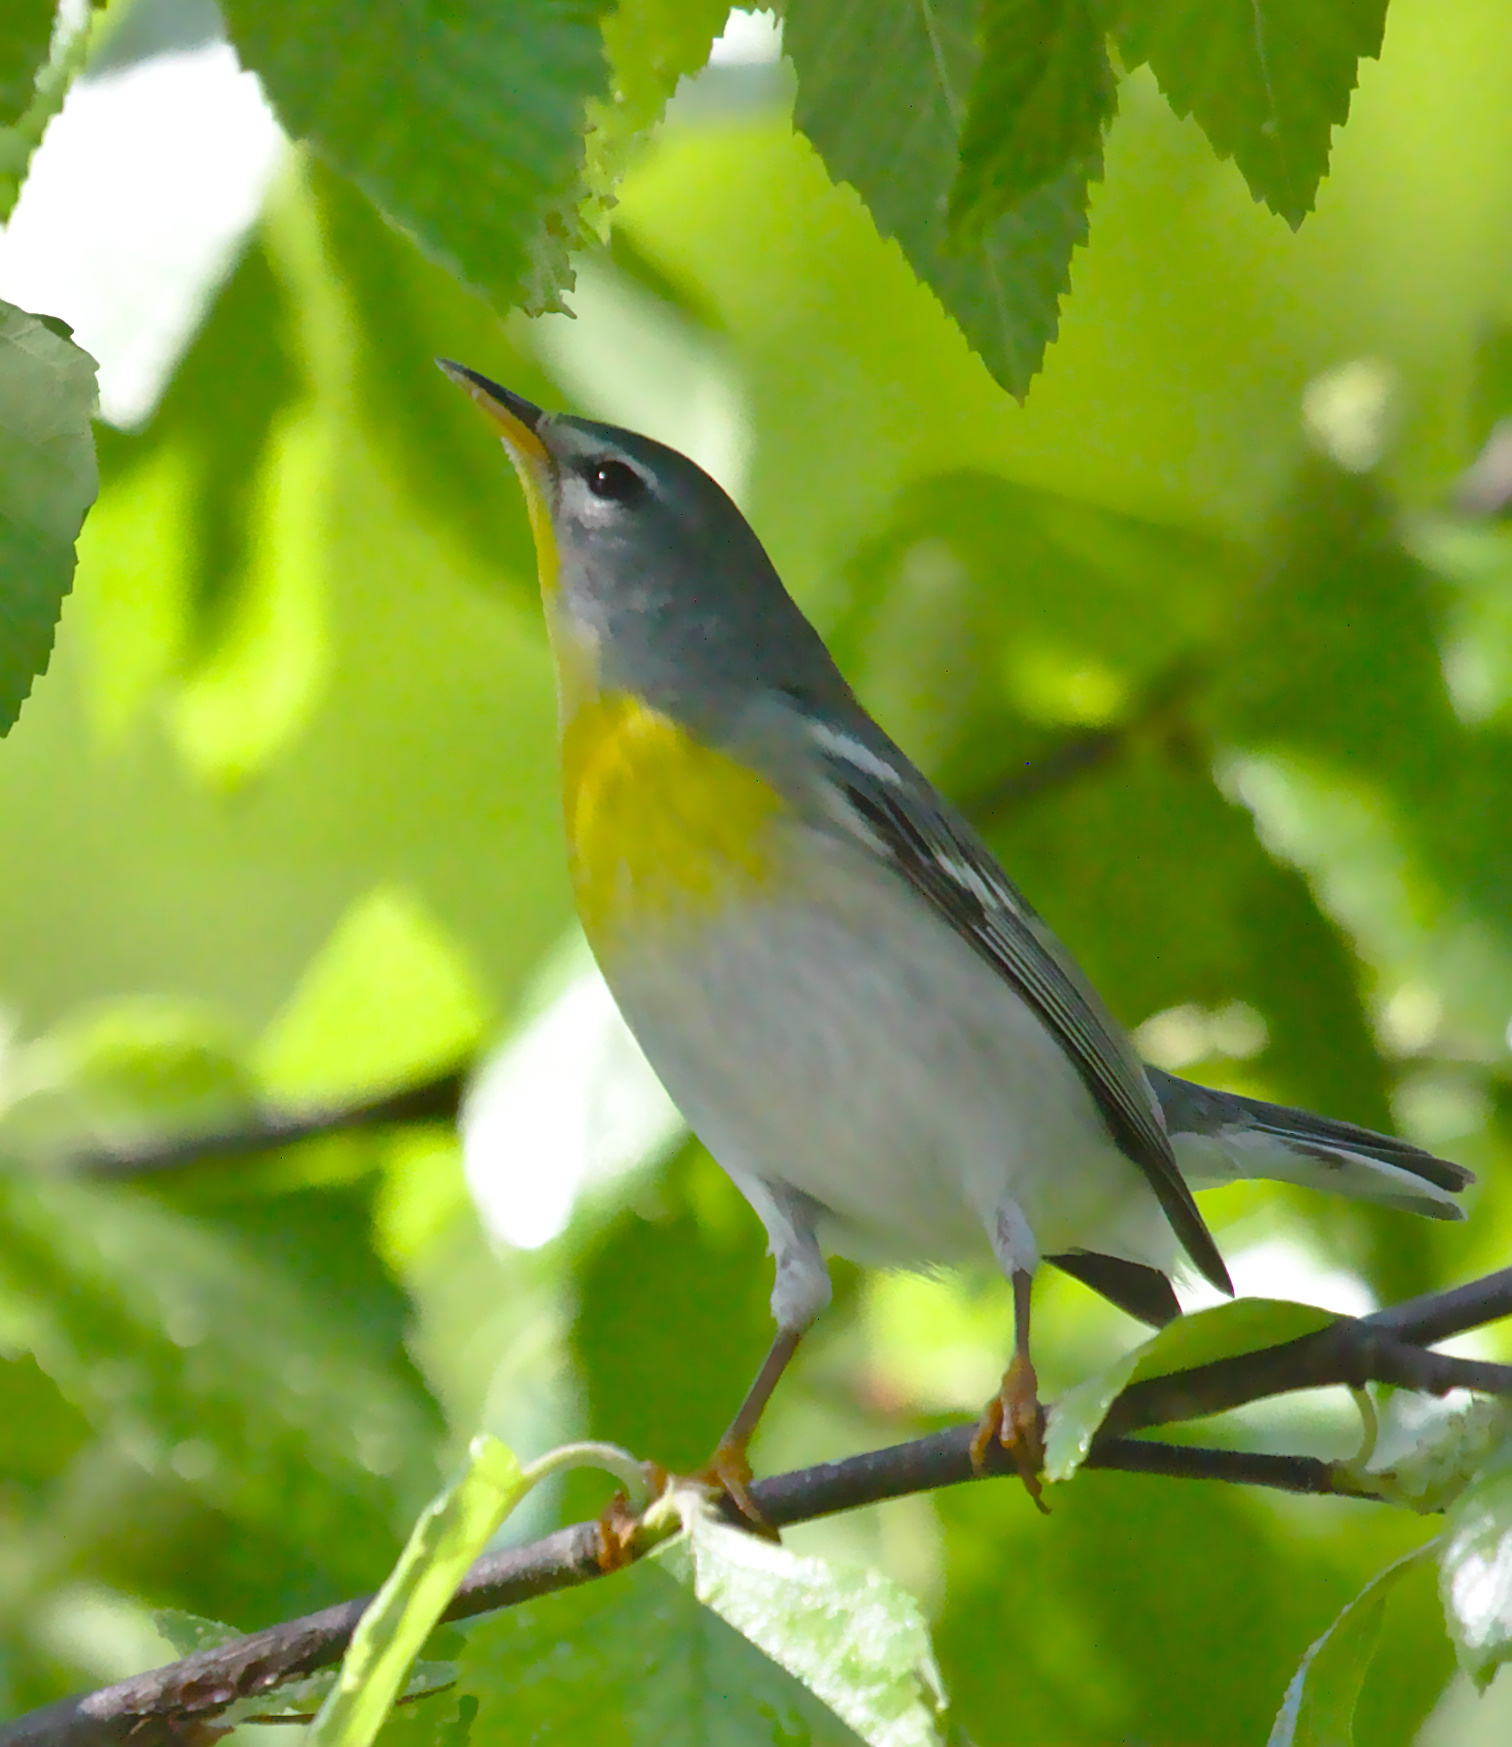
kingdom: Animalia
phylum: Chordata
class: Aves
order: Passeriformes
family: Parulidae
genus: Setophaga
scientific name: Setophaga americana
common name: Northern parula
